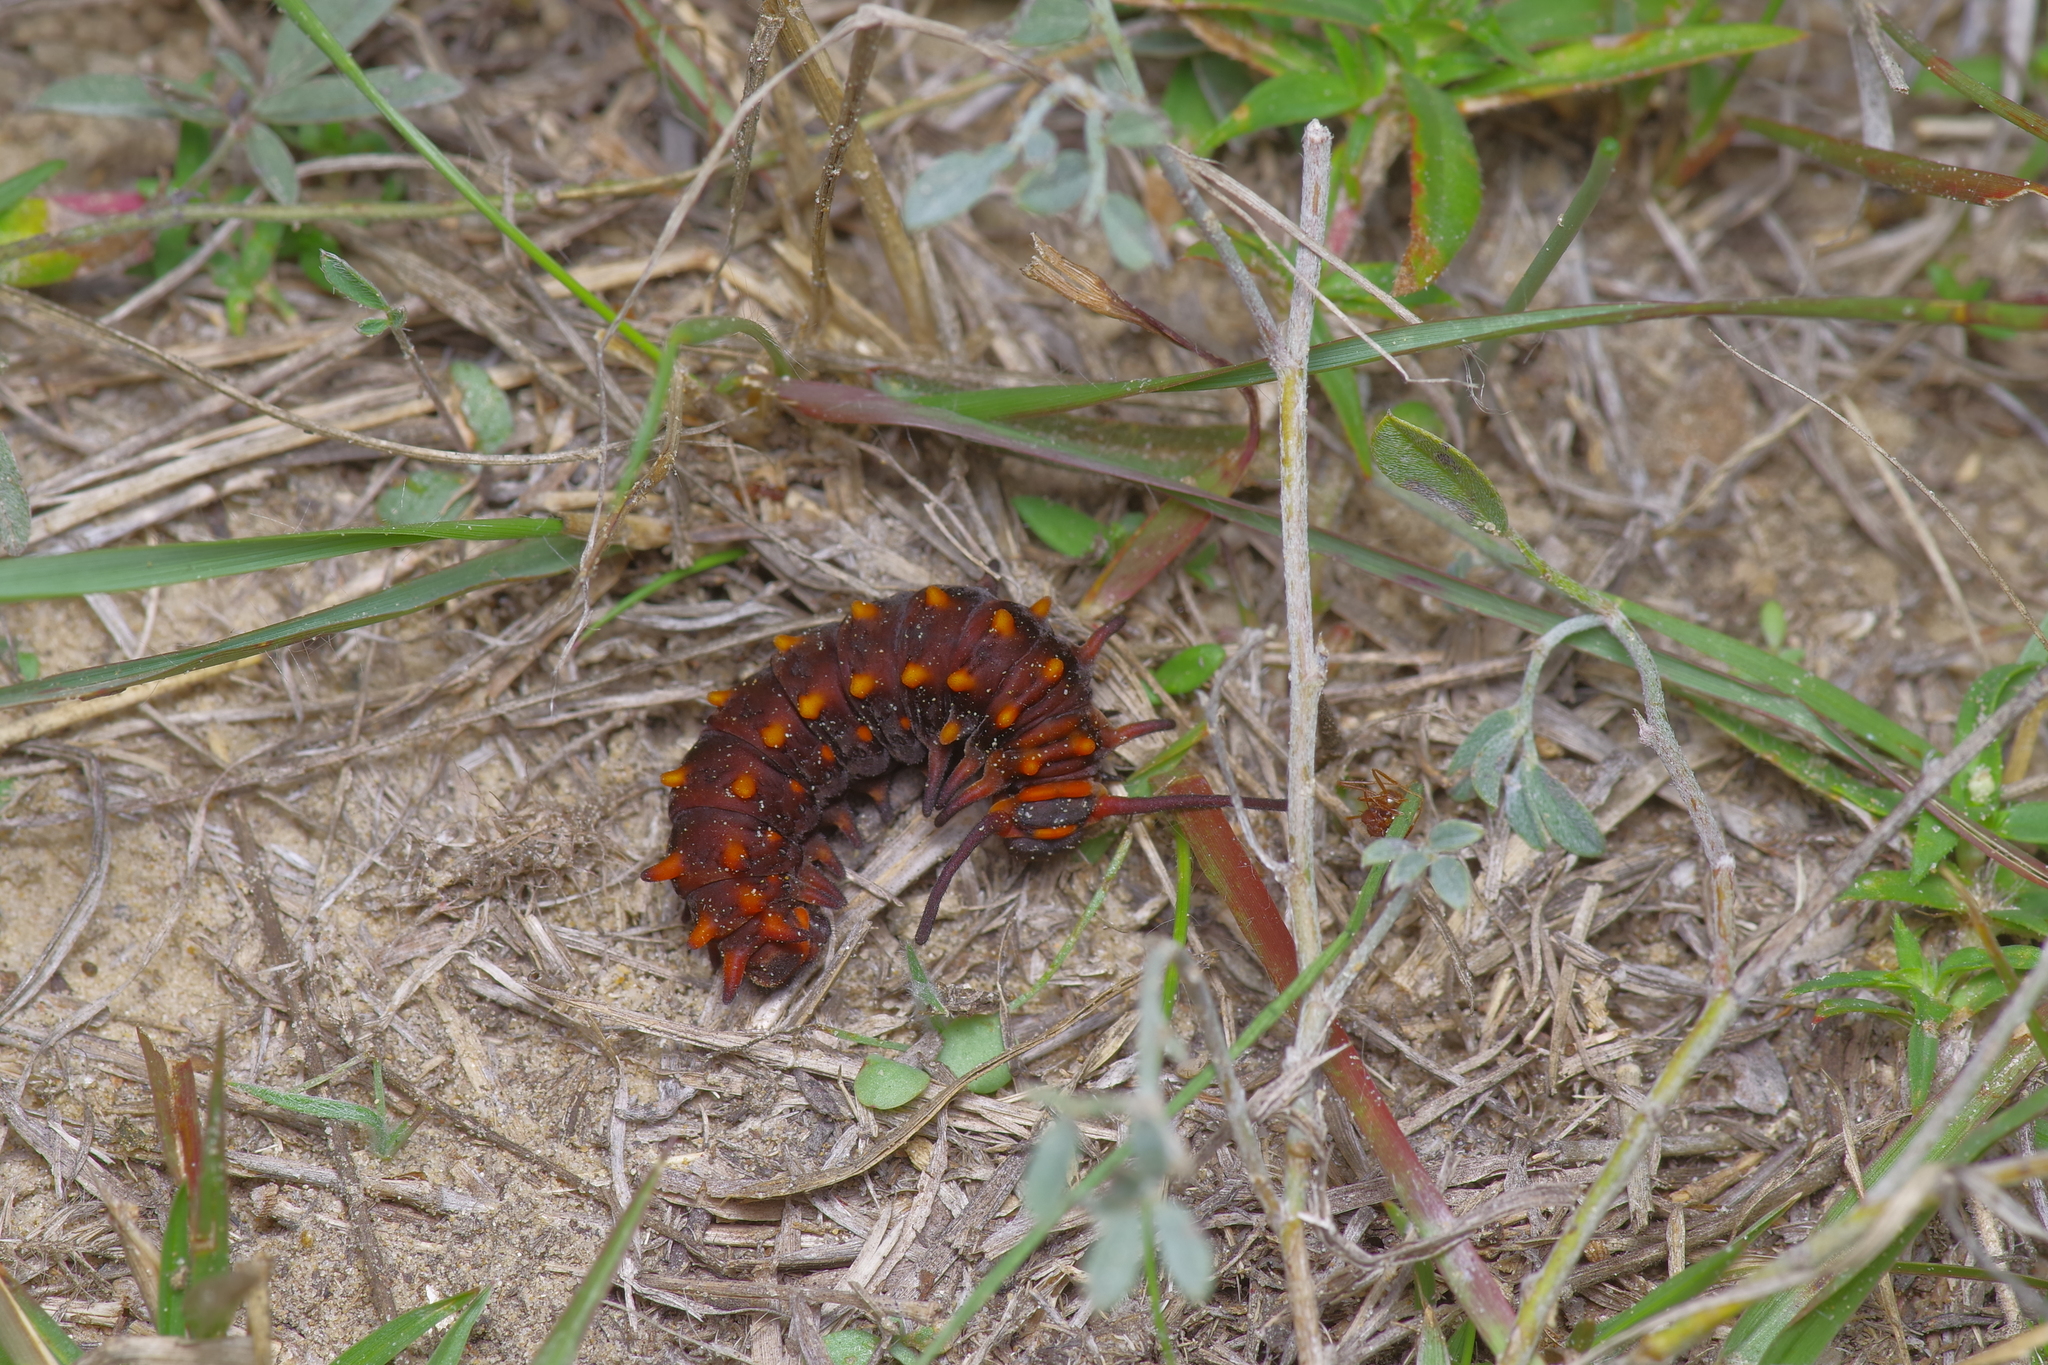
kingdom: Animalia
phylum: Arthropoda
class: Insecta
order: Lepidoptera
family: Papilionidae
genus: Battus
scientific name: Battus philenor
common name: Pipevine swallowtail
